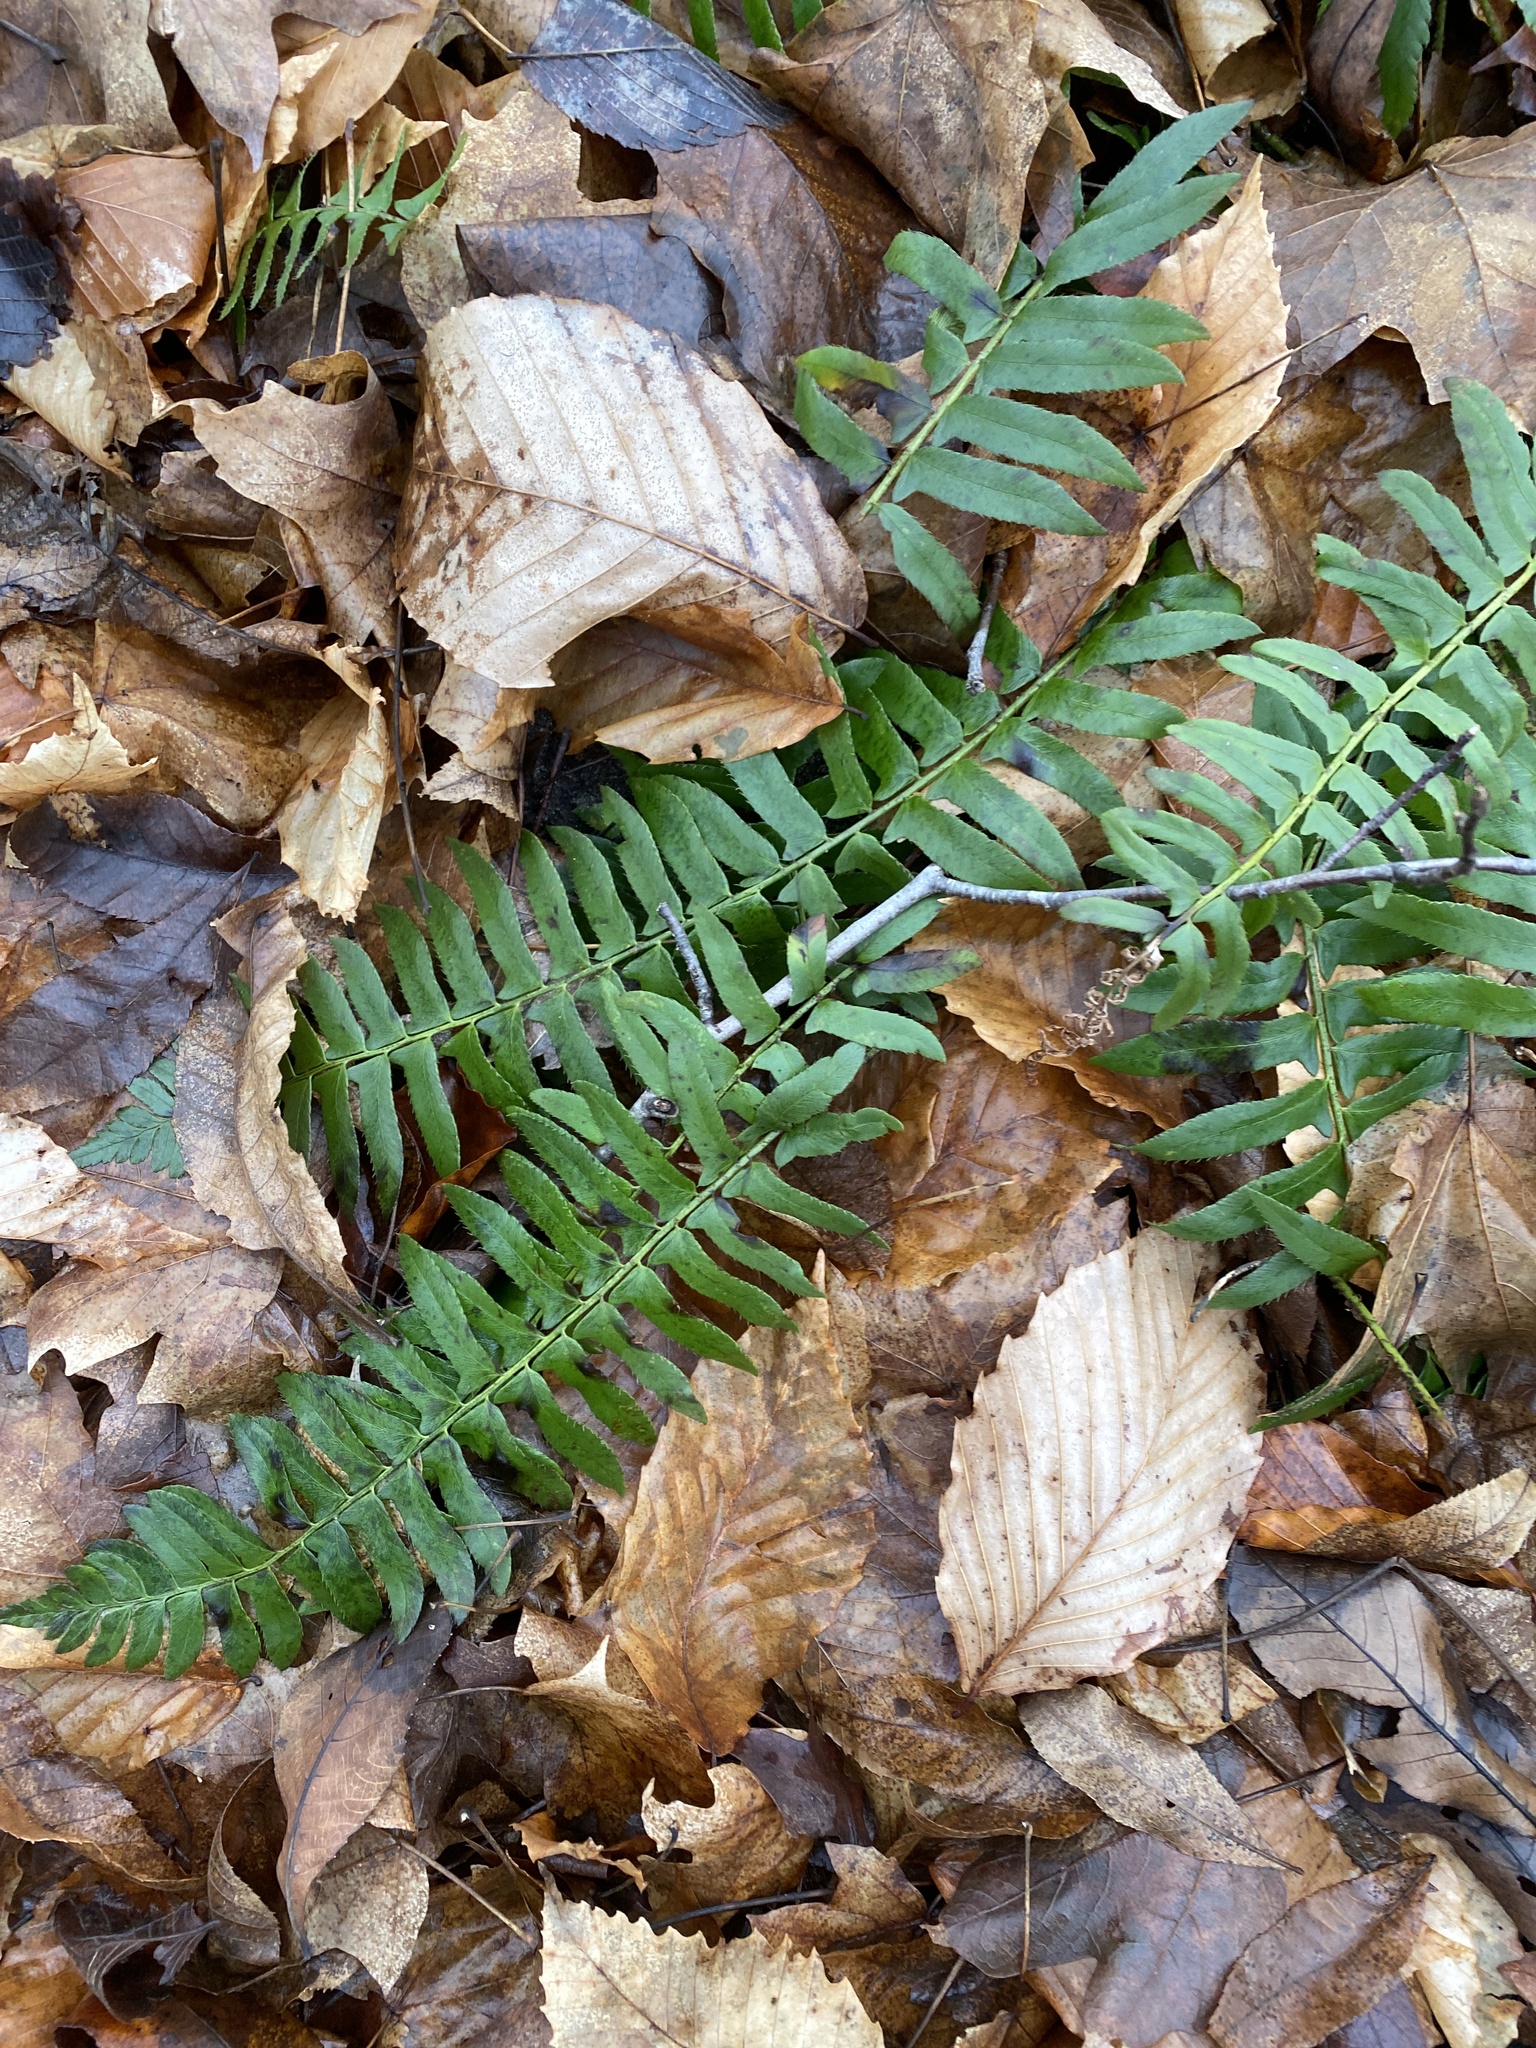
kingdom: Plantae
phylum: Tracheophyta
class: Polypodiopsida
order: Polypodiales
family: Dryopteridaceae
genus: Polystichum
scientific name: Polystichum acrostichoides
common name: Christmas fern
